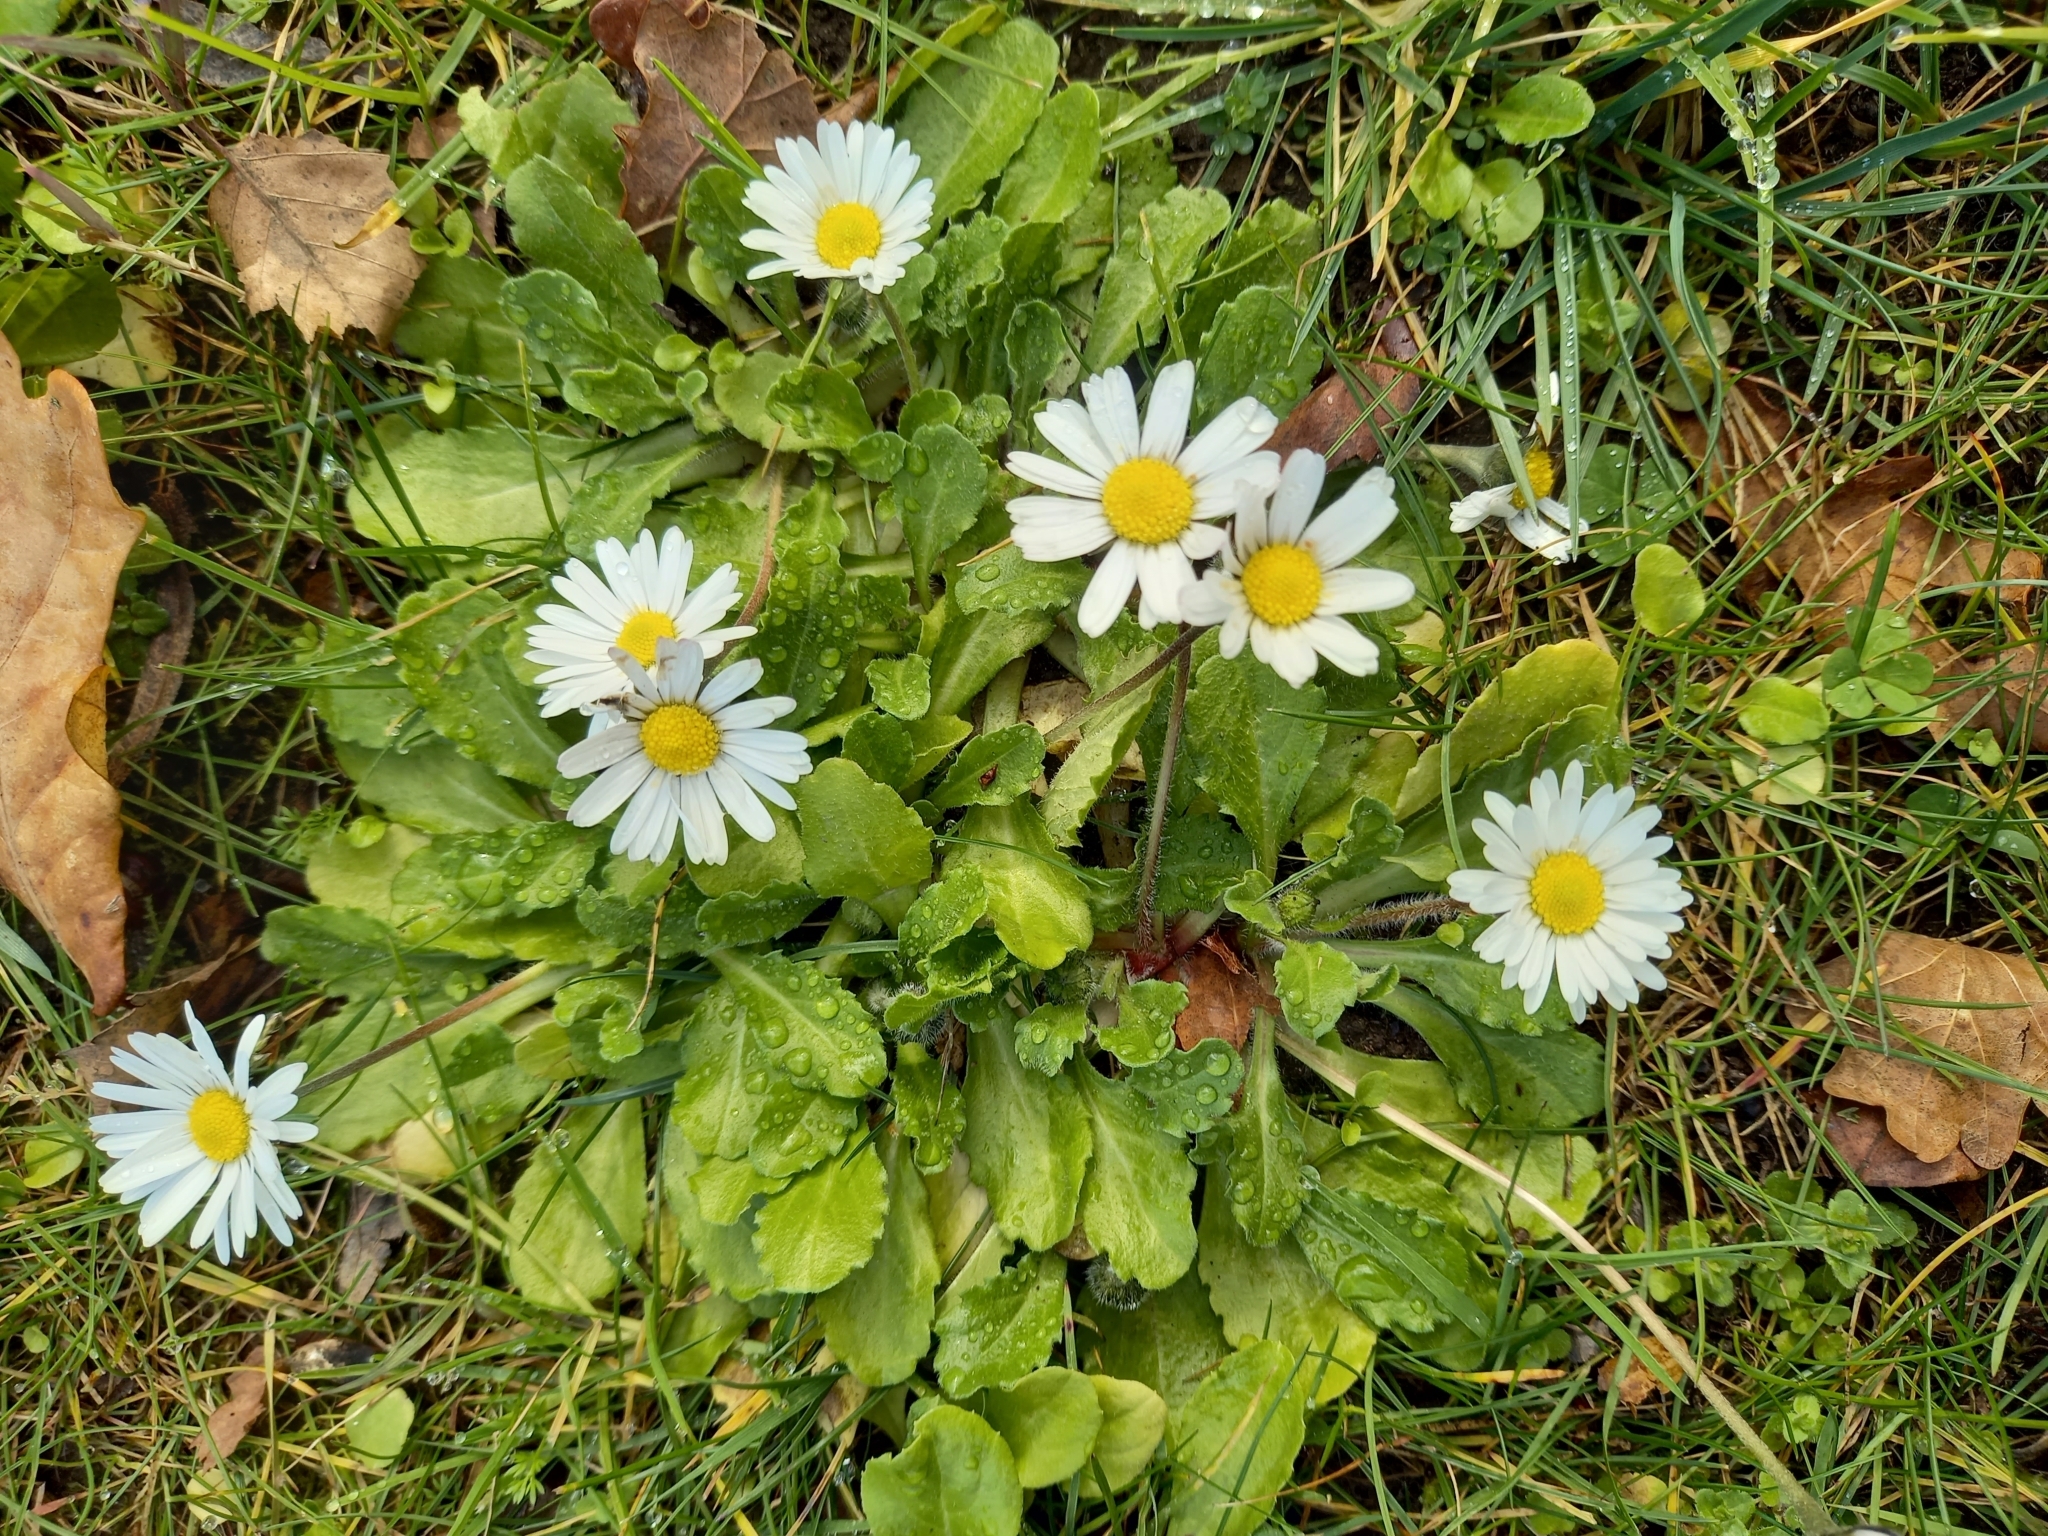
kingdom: Plantae
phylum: Tracheophyta
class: Magnoliopsida
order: Asterales
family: Asteraceae
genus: Bellis
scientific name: Bellis perennis
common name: Lawndaisy
